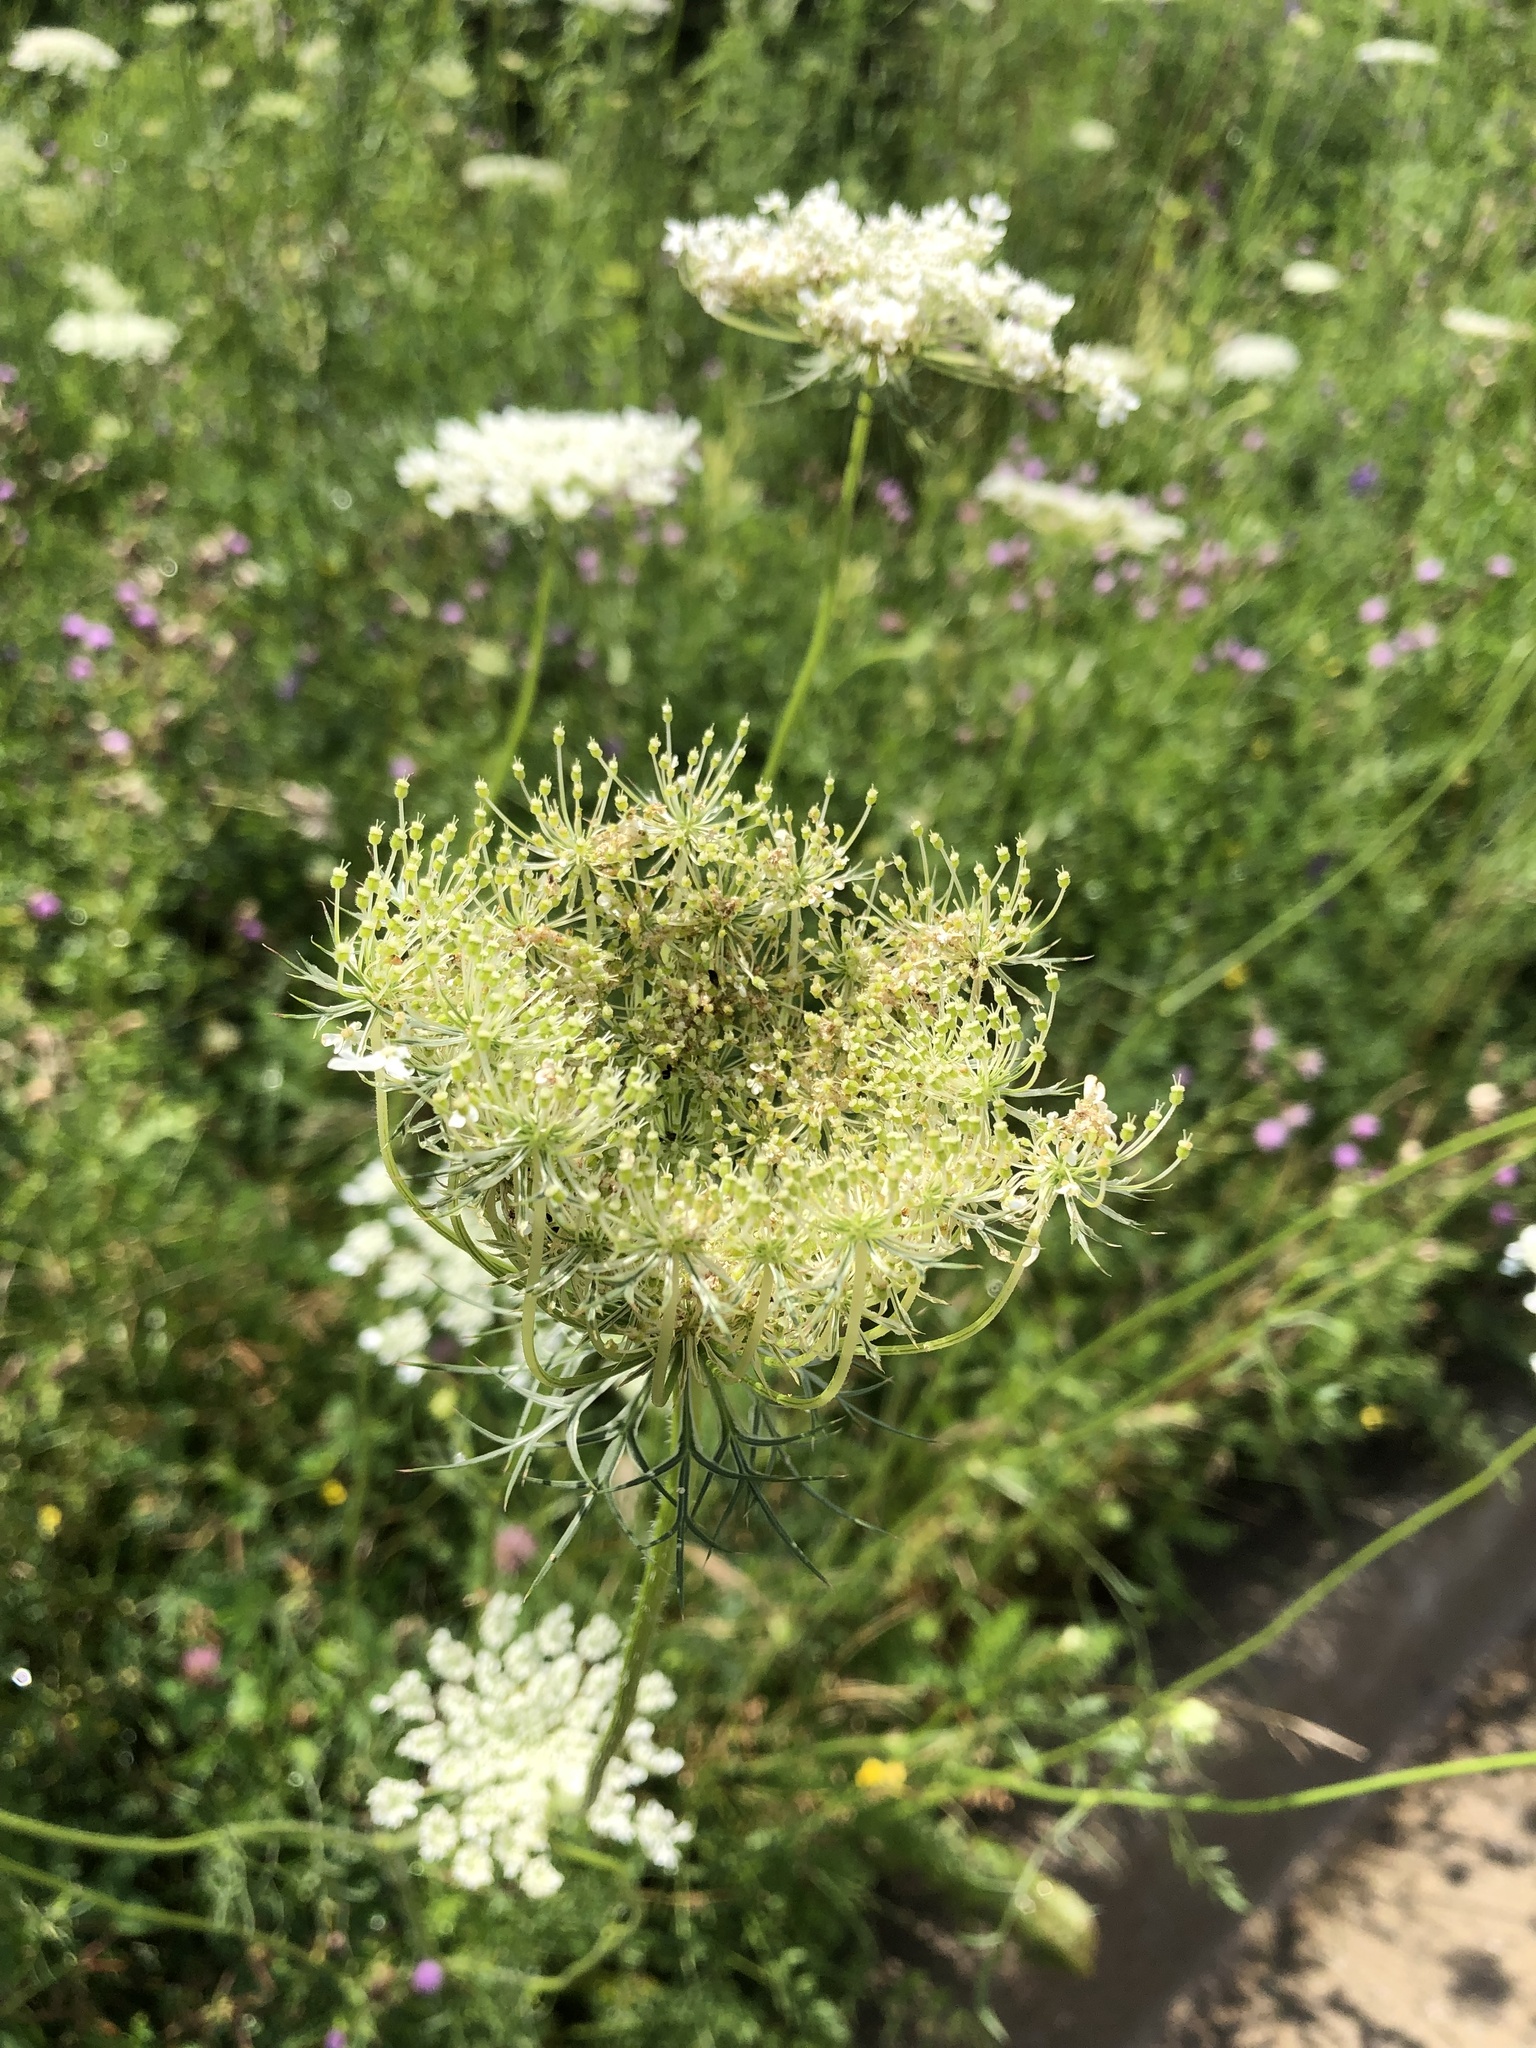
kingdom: Plantae
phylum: Tracheophyta
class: Magnoliopsida
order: Apiales
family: Apiaceae
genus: Daucus
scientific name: Daucus carota
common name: Wild carrot
